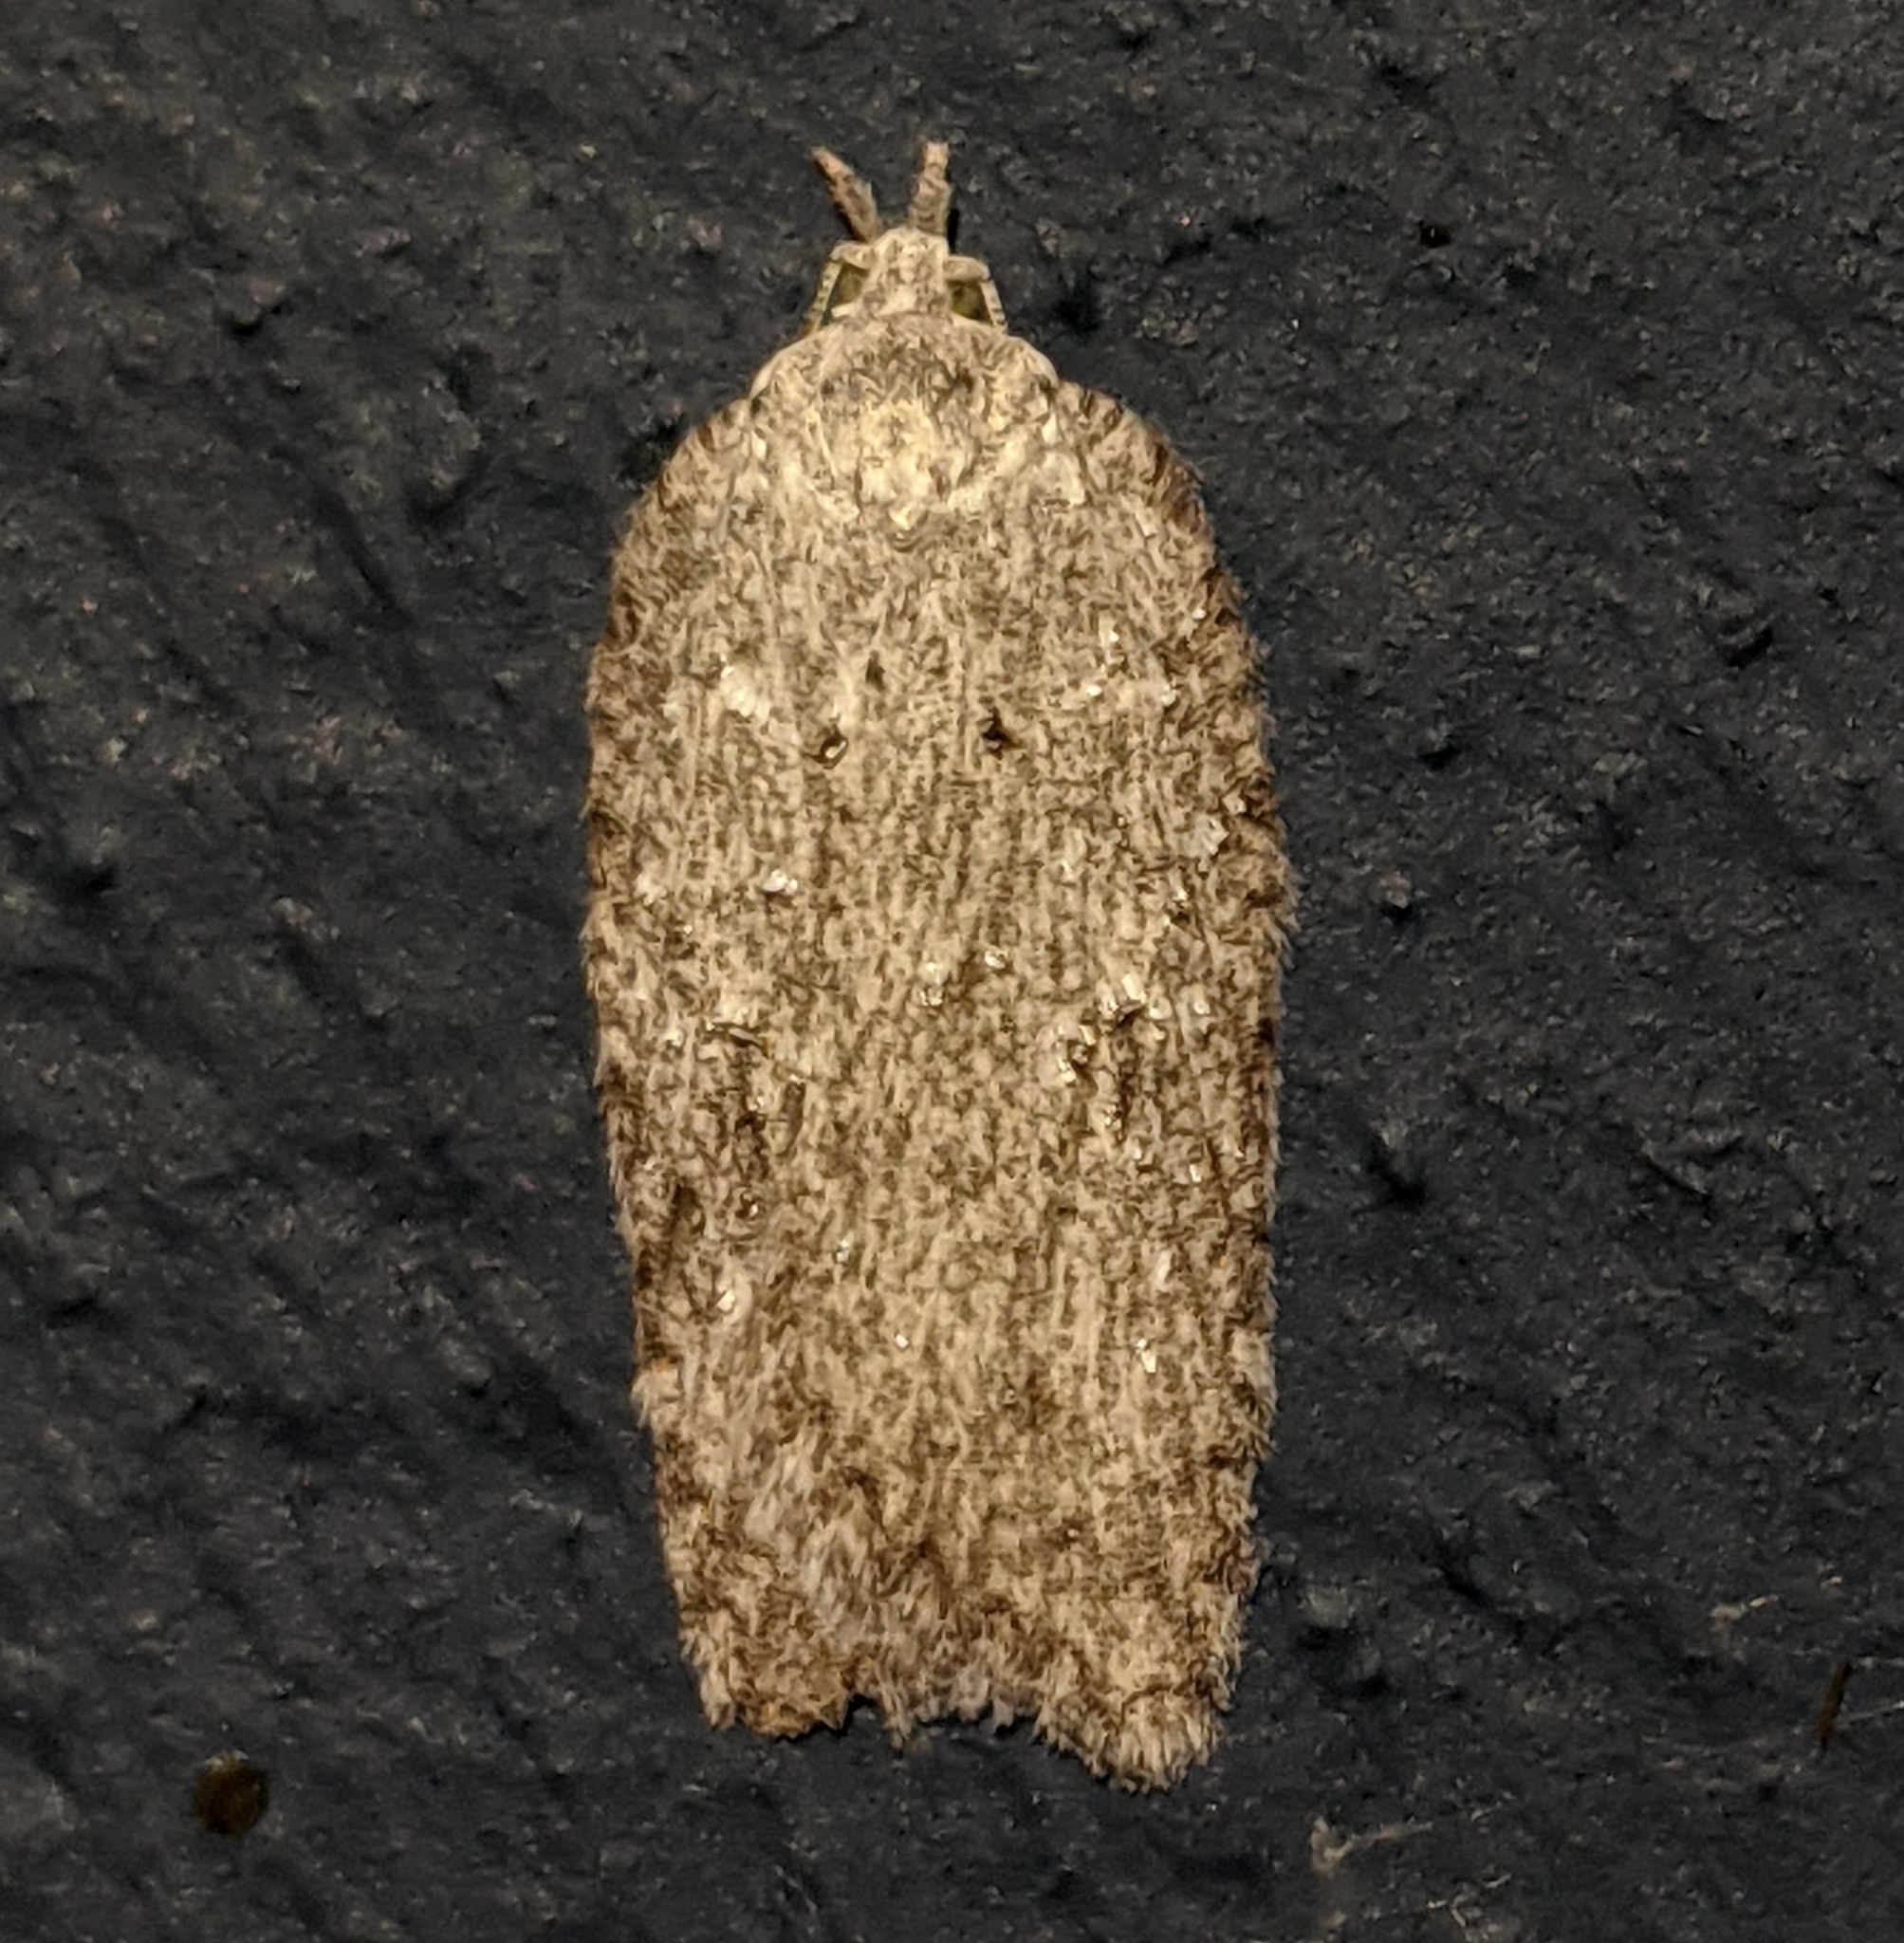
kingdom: Animalia
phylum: Arthropoda
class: Insecta
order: Lepidoptera
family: Tortricidae
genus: Acleris
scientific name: Acleris maximana
